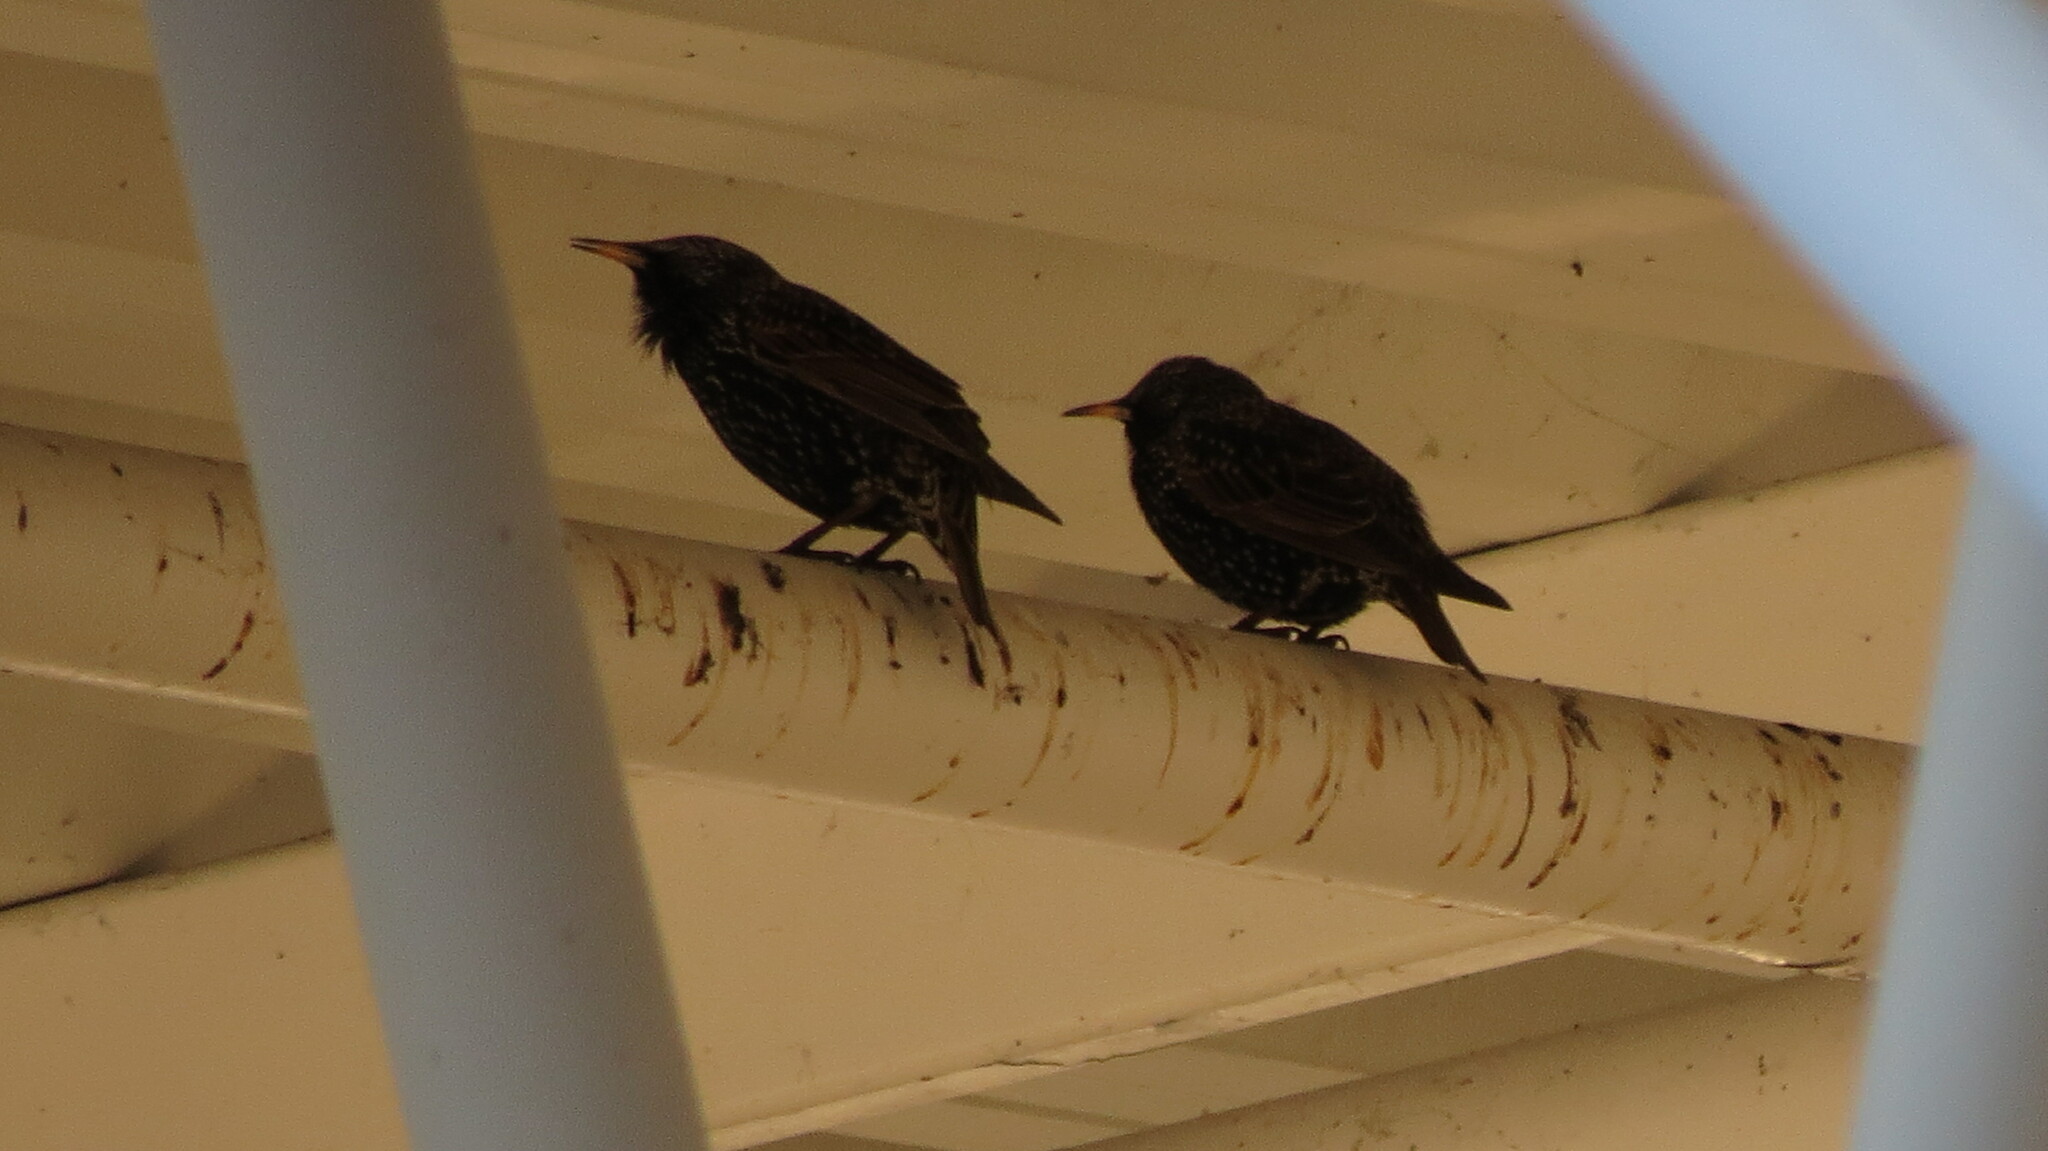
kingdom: Animalia
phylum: Chordata
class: Aves
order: Passeriformes
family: Sturnidae
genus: Sturnus
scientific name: Sturnus vulgaris
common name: Common starling
